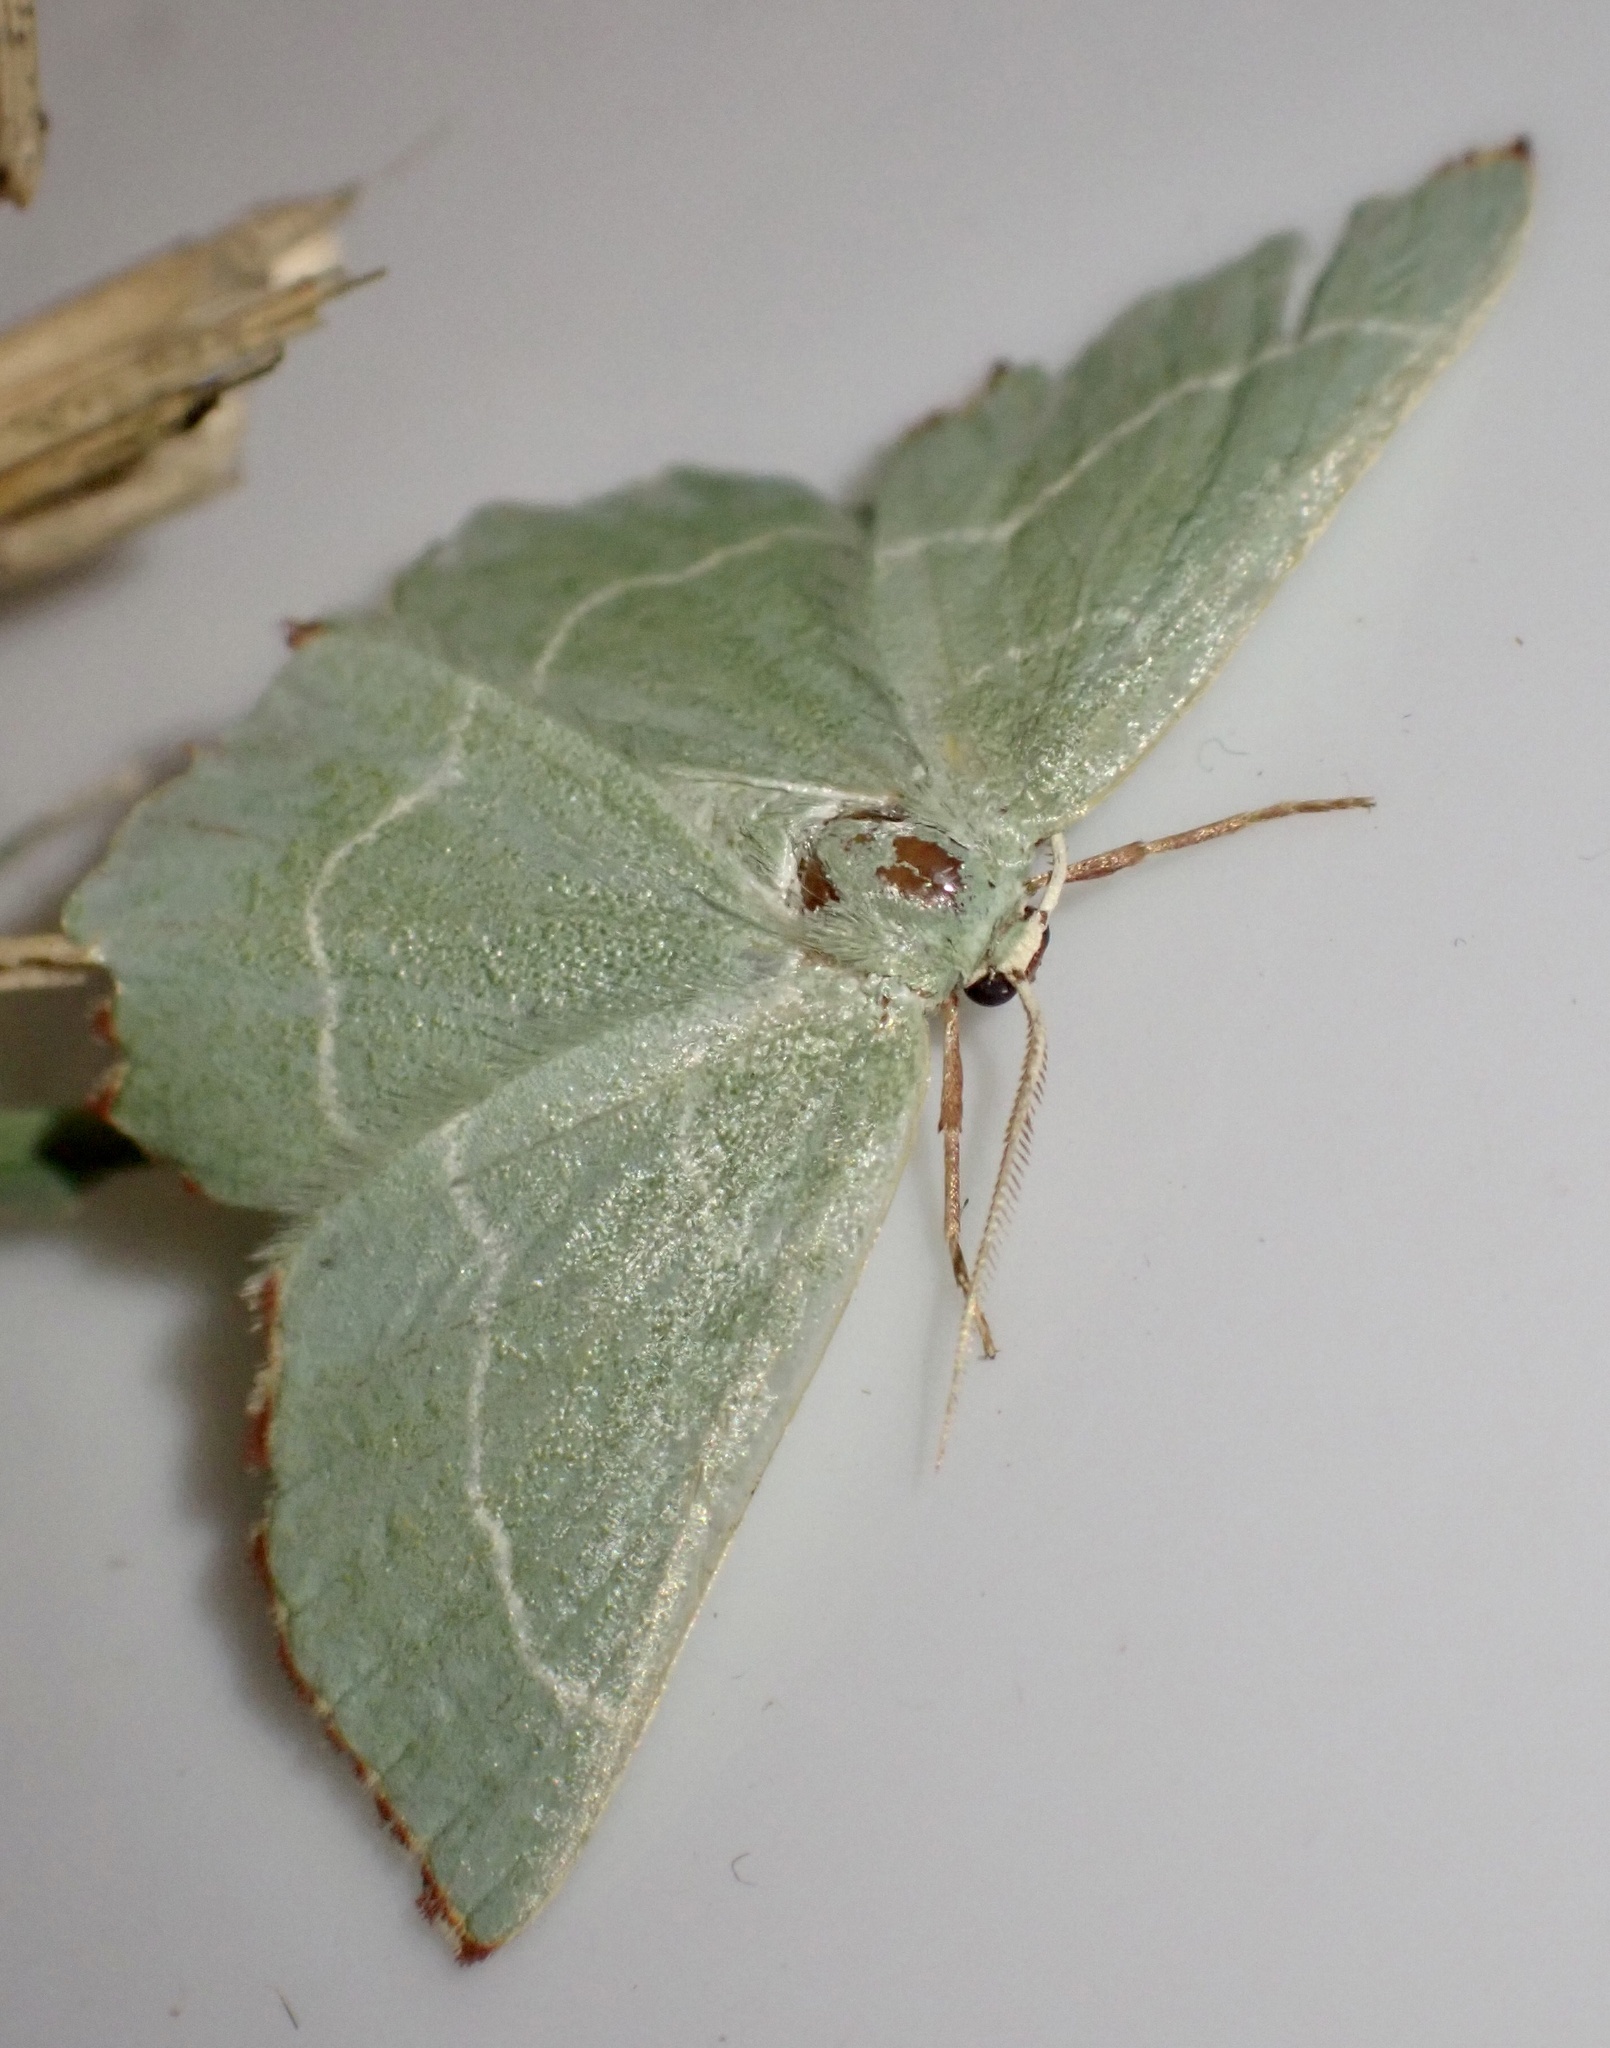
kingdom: Animalia
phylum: Arthropoda
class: Insecta
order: Lepidoptera
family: Geometridae
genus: Thalera
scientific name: Thalera fimbrialis
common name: Sussex emerald
